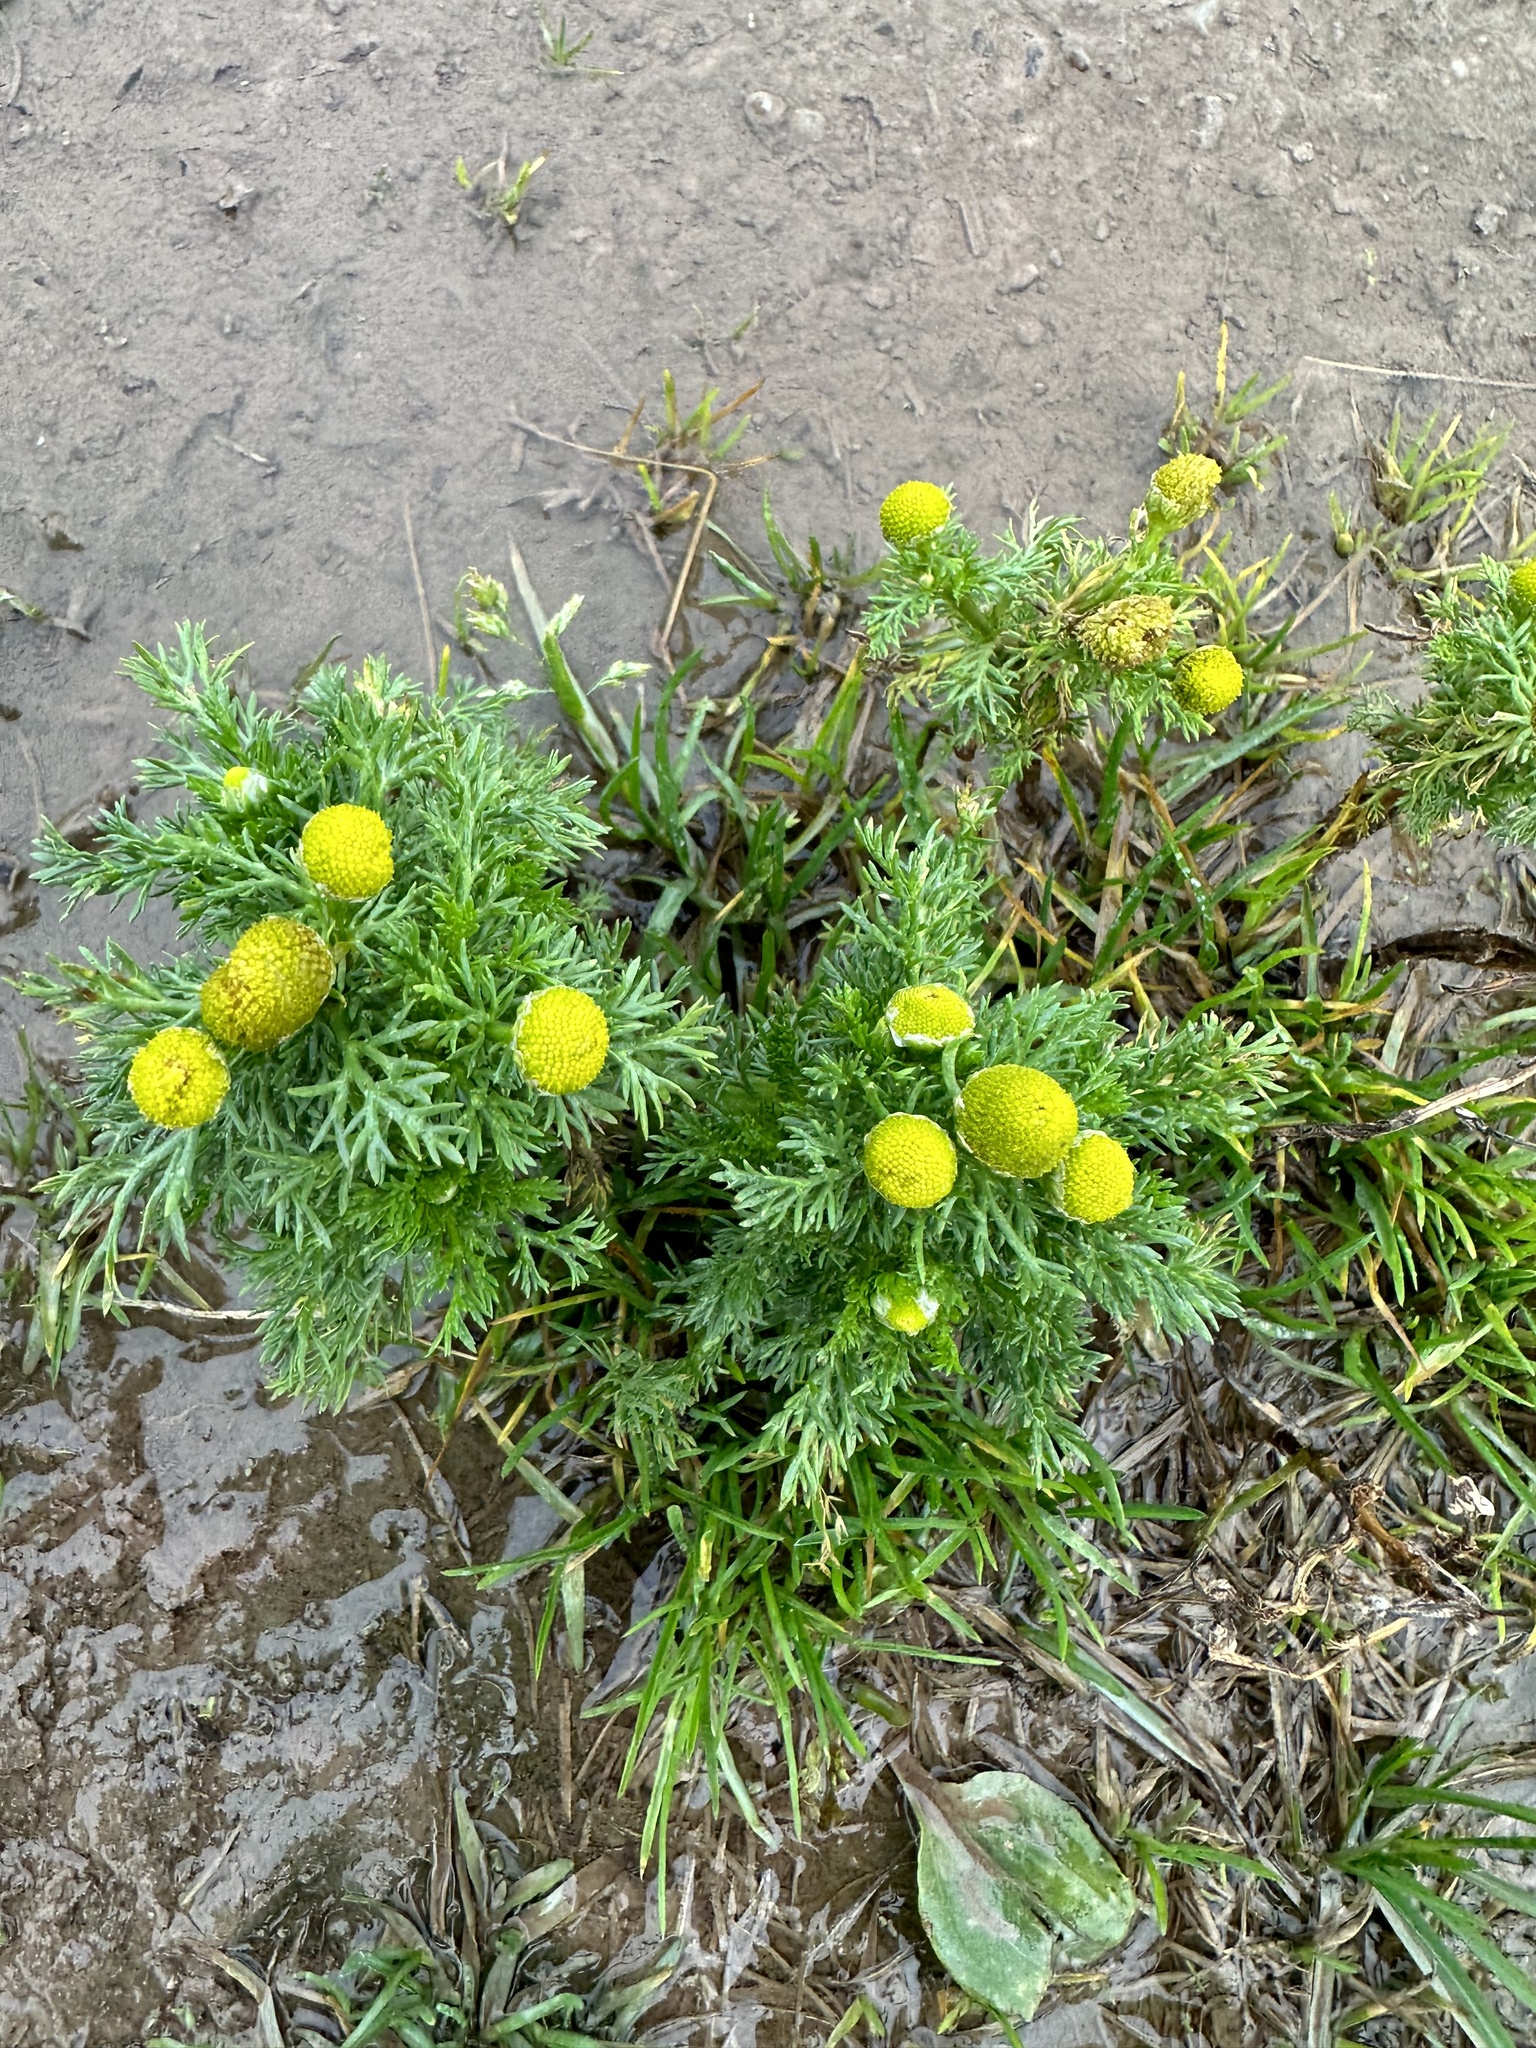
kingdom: Plantae
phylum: Tracheophyta
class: Magnoliopsida
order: Asterales
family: Asteraceae
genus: Matricaria
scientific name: Matricaria discoidea
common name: Disc mayweed
